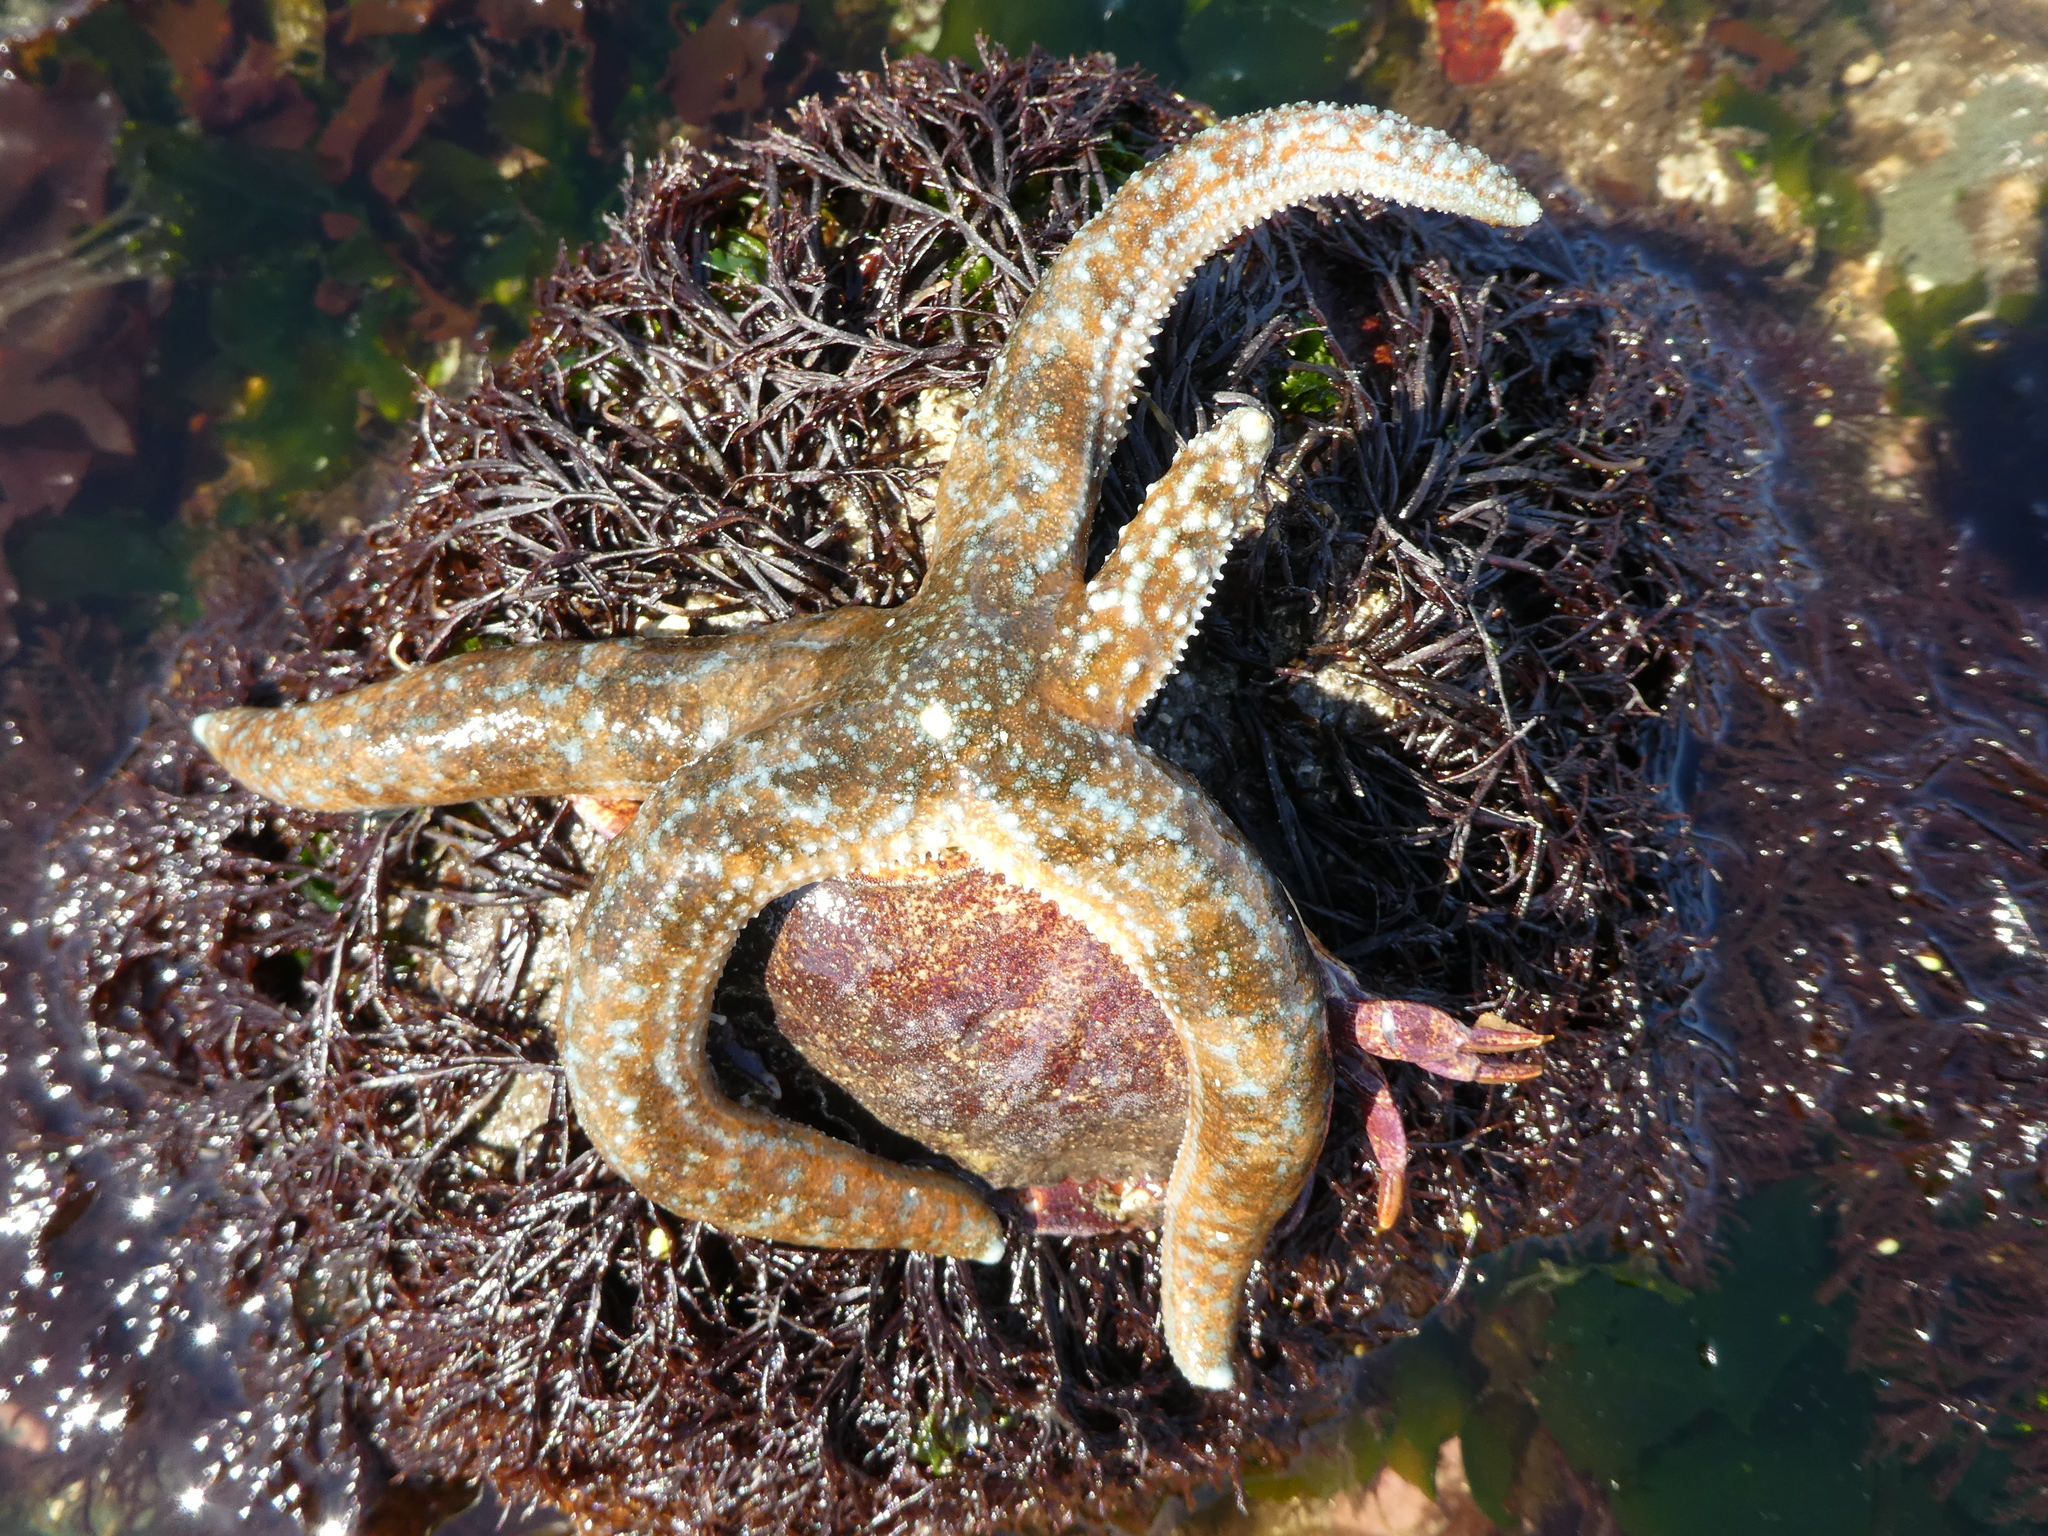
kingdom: Animalia
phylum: Echinodermata
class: Asteroidea
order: Forcipulatida
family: Asteriidae
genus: Evasterias
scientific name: Evasterias troschelii
